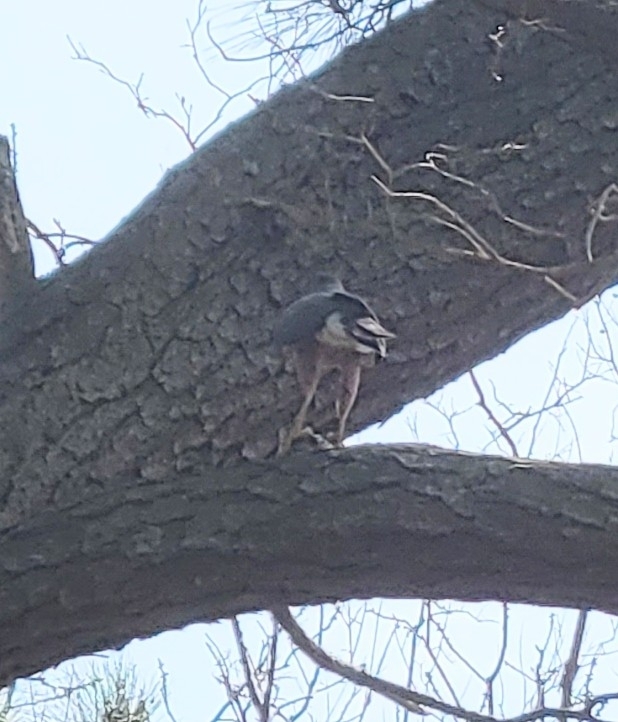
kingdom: Animalia
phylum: Chordata
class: Aves
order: Accipitriformes
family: Accipitridae
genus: Accipiter
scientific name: Accipiter cooperii
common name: Cooper's hawk
